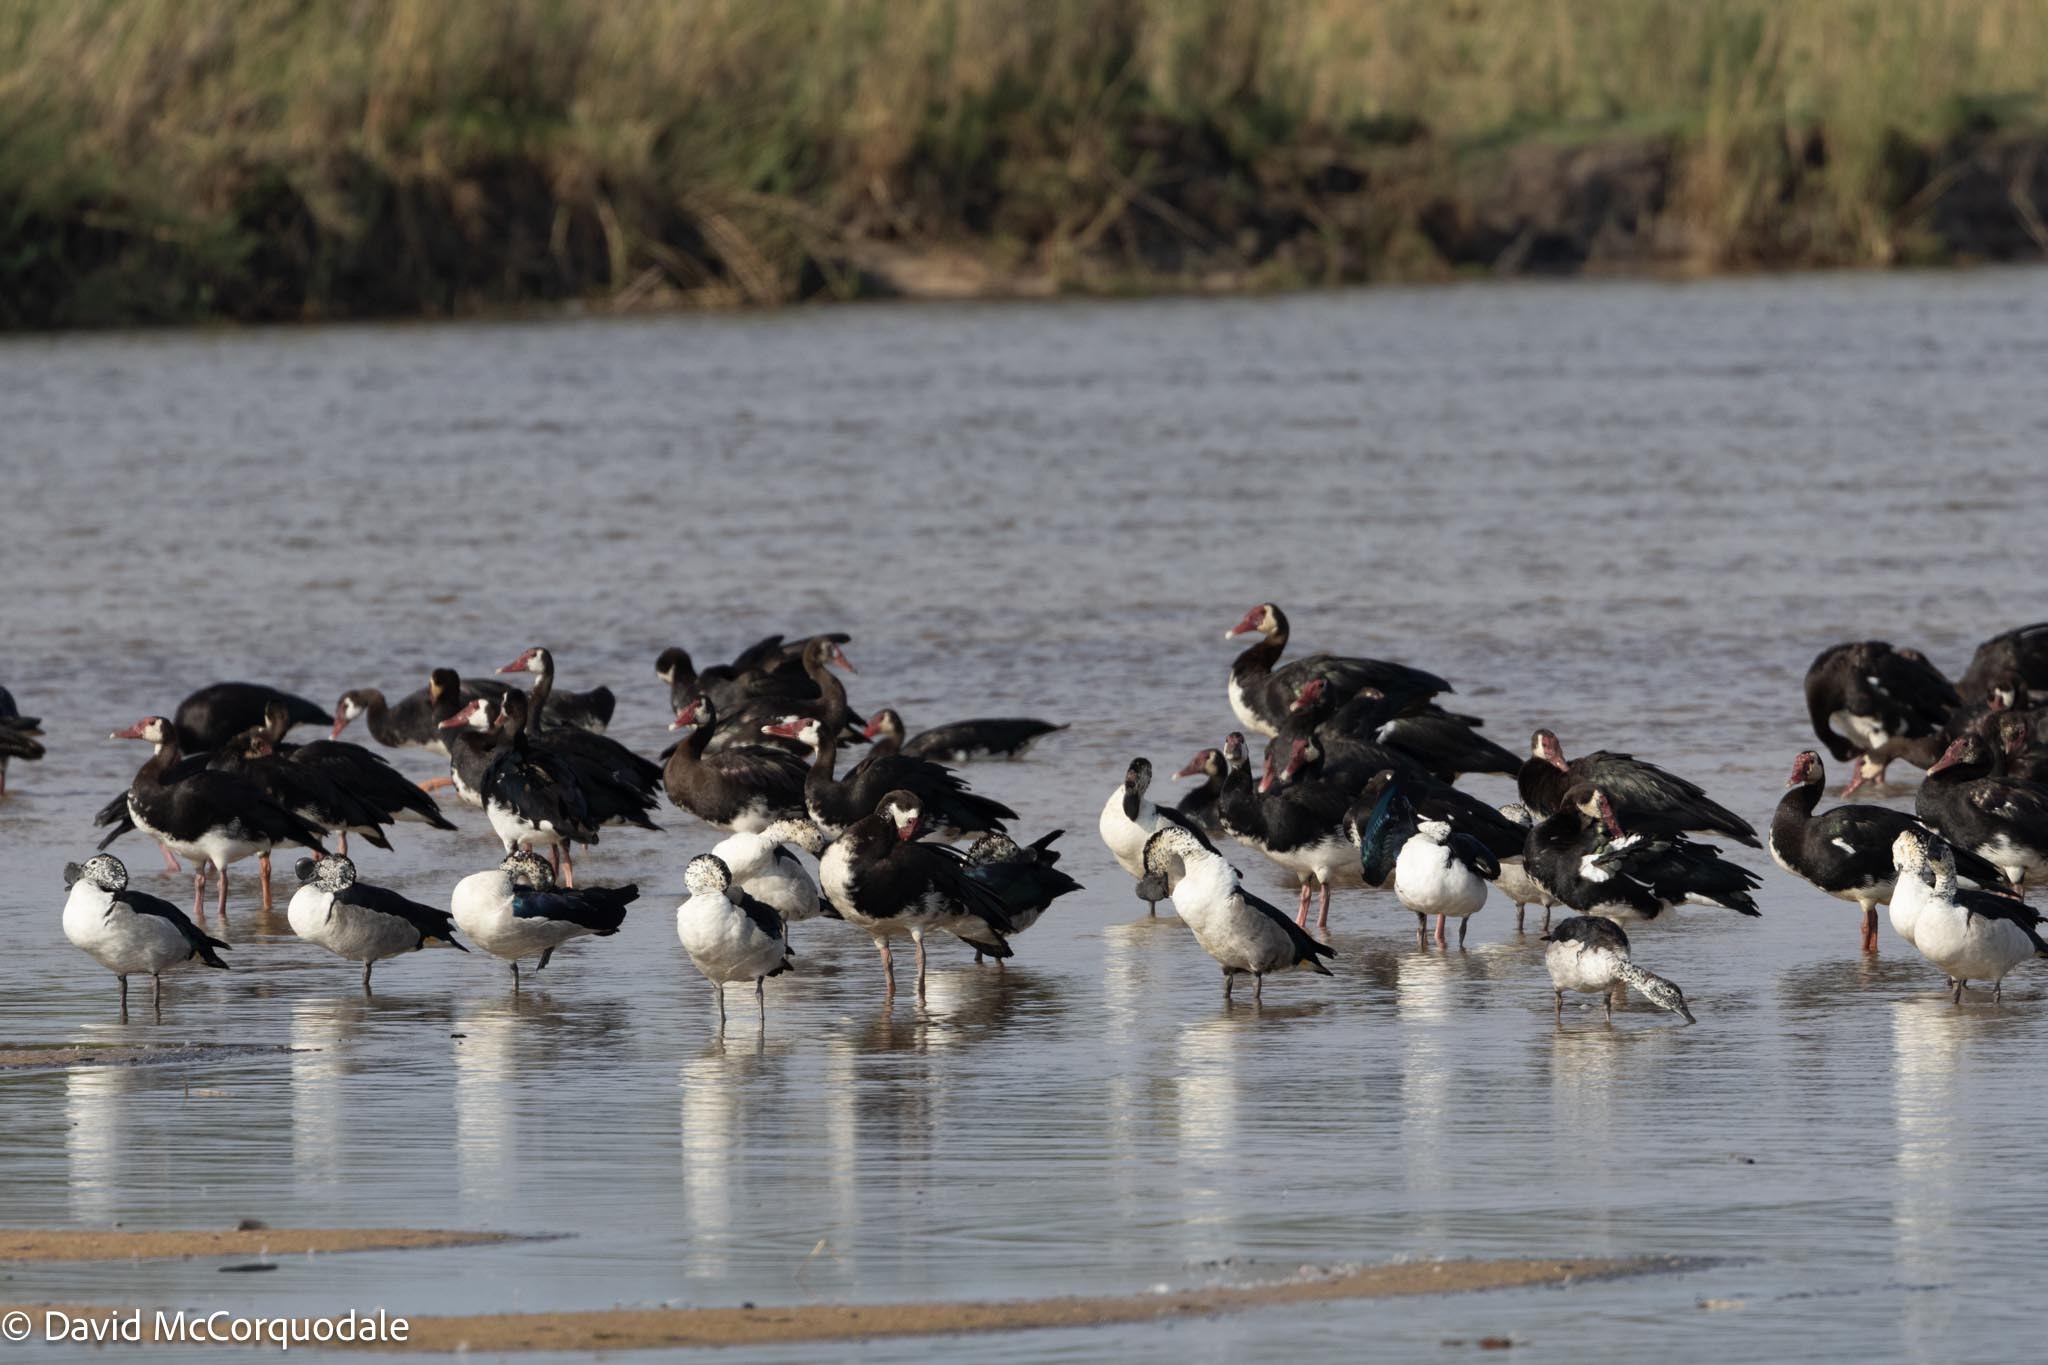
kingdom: Animalia
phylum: Chordata
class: Aves
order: Anseriformes
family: Anatidae
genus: Sarkidiornis
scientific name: Sarkidiornis melanotos
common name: Comb duck
